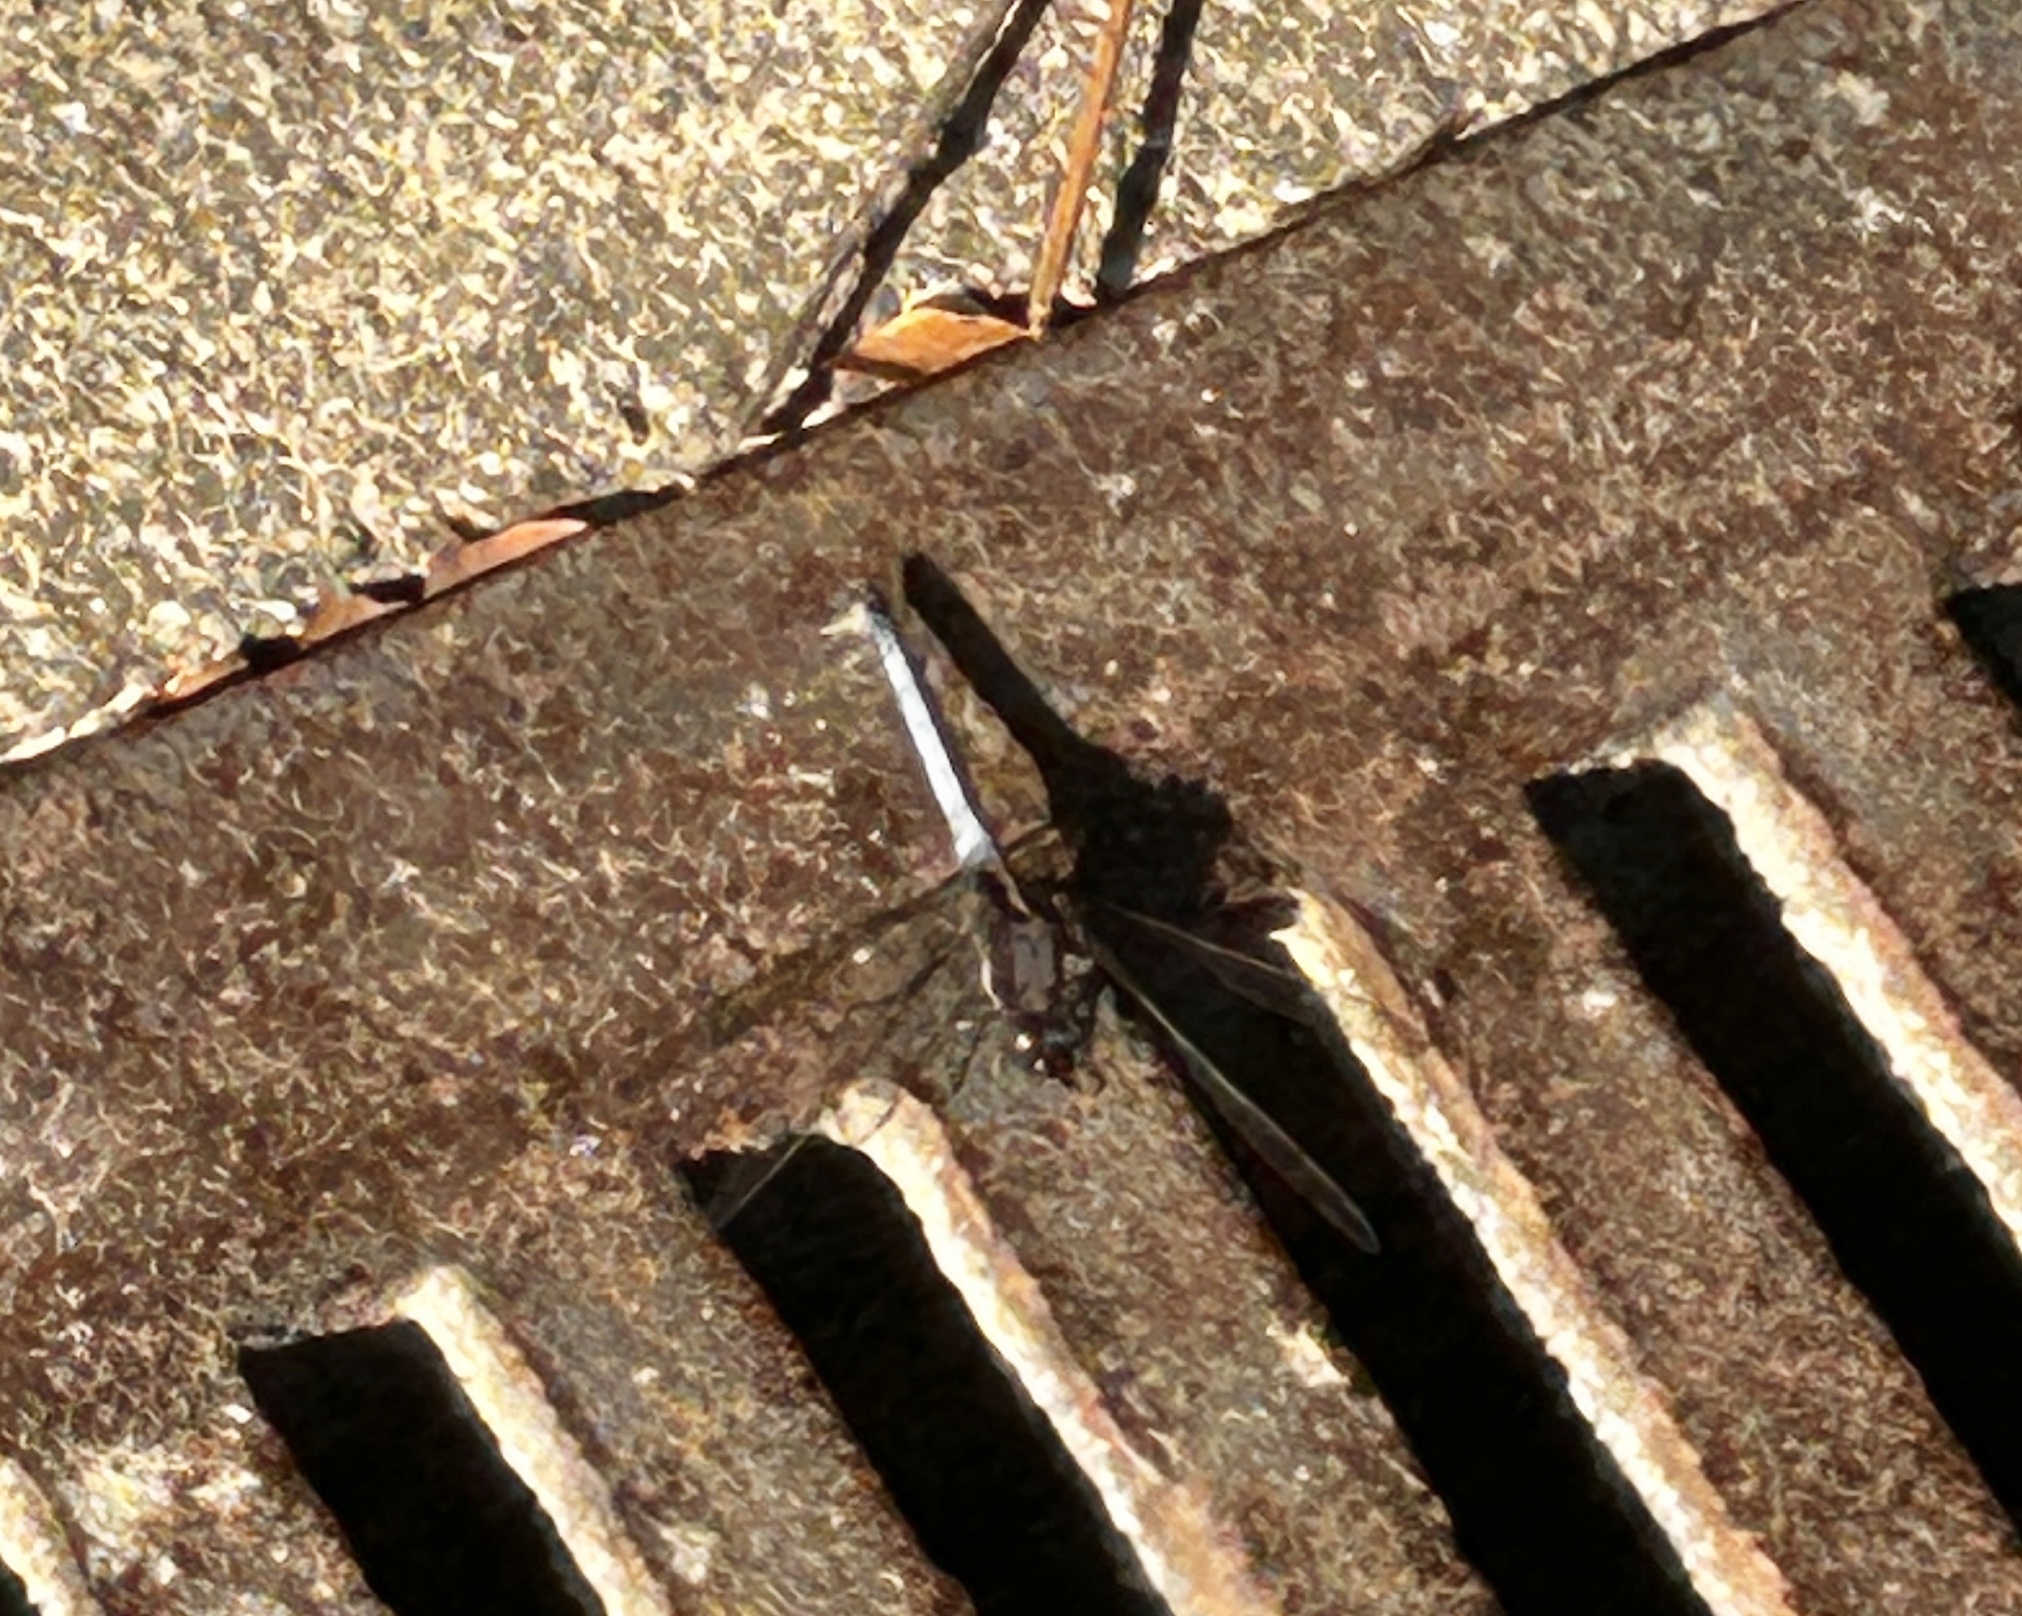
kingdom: Animalia
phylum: Arthropoda
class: Insecta
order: Odonata
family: Libellulidae
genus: Orthetrum
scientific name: Orthetrum glaucum
